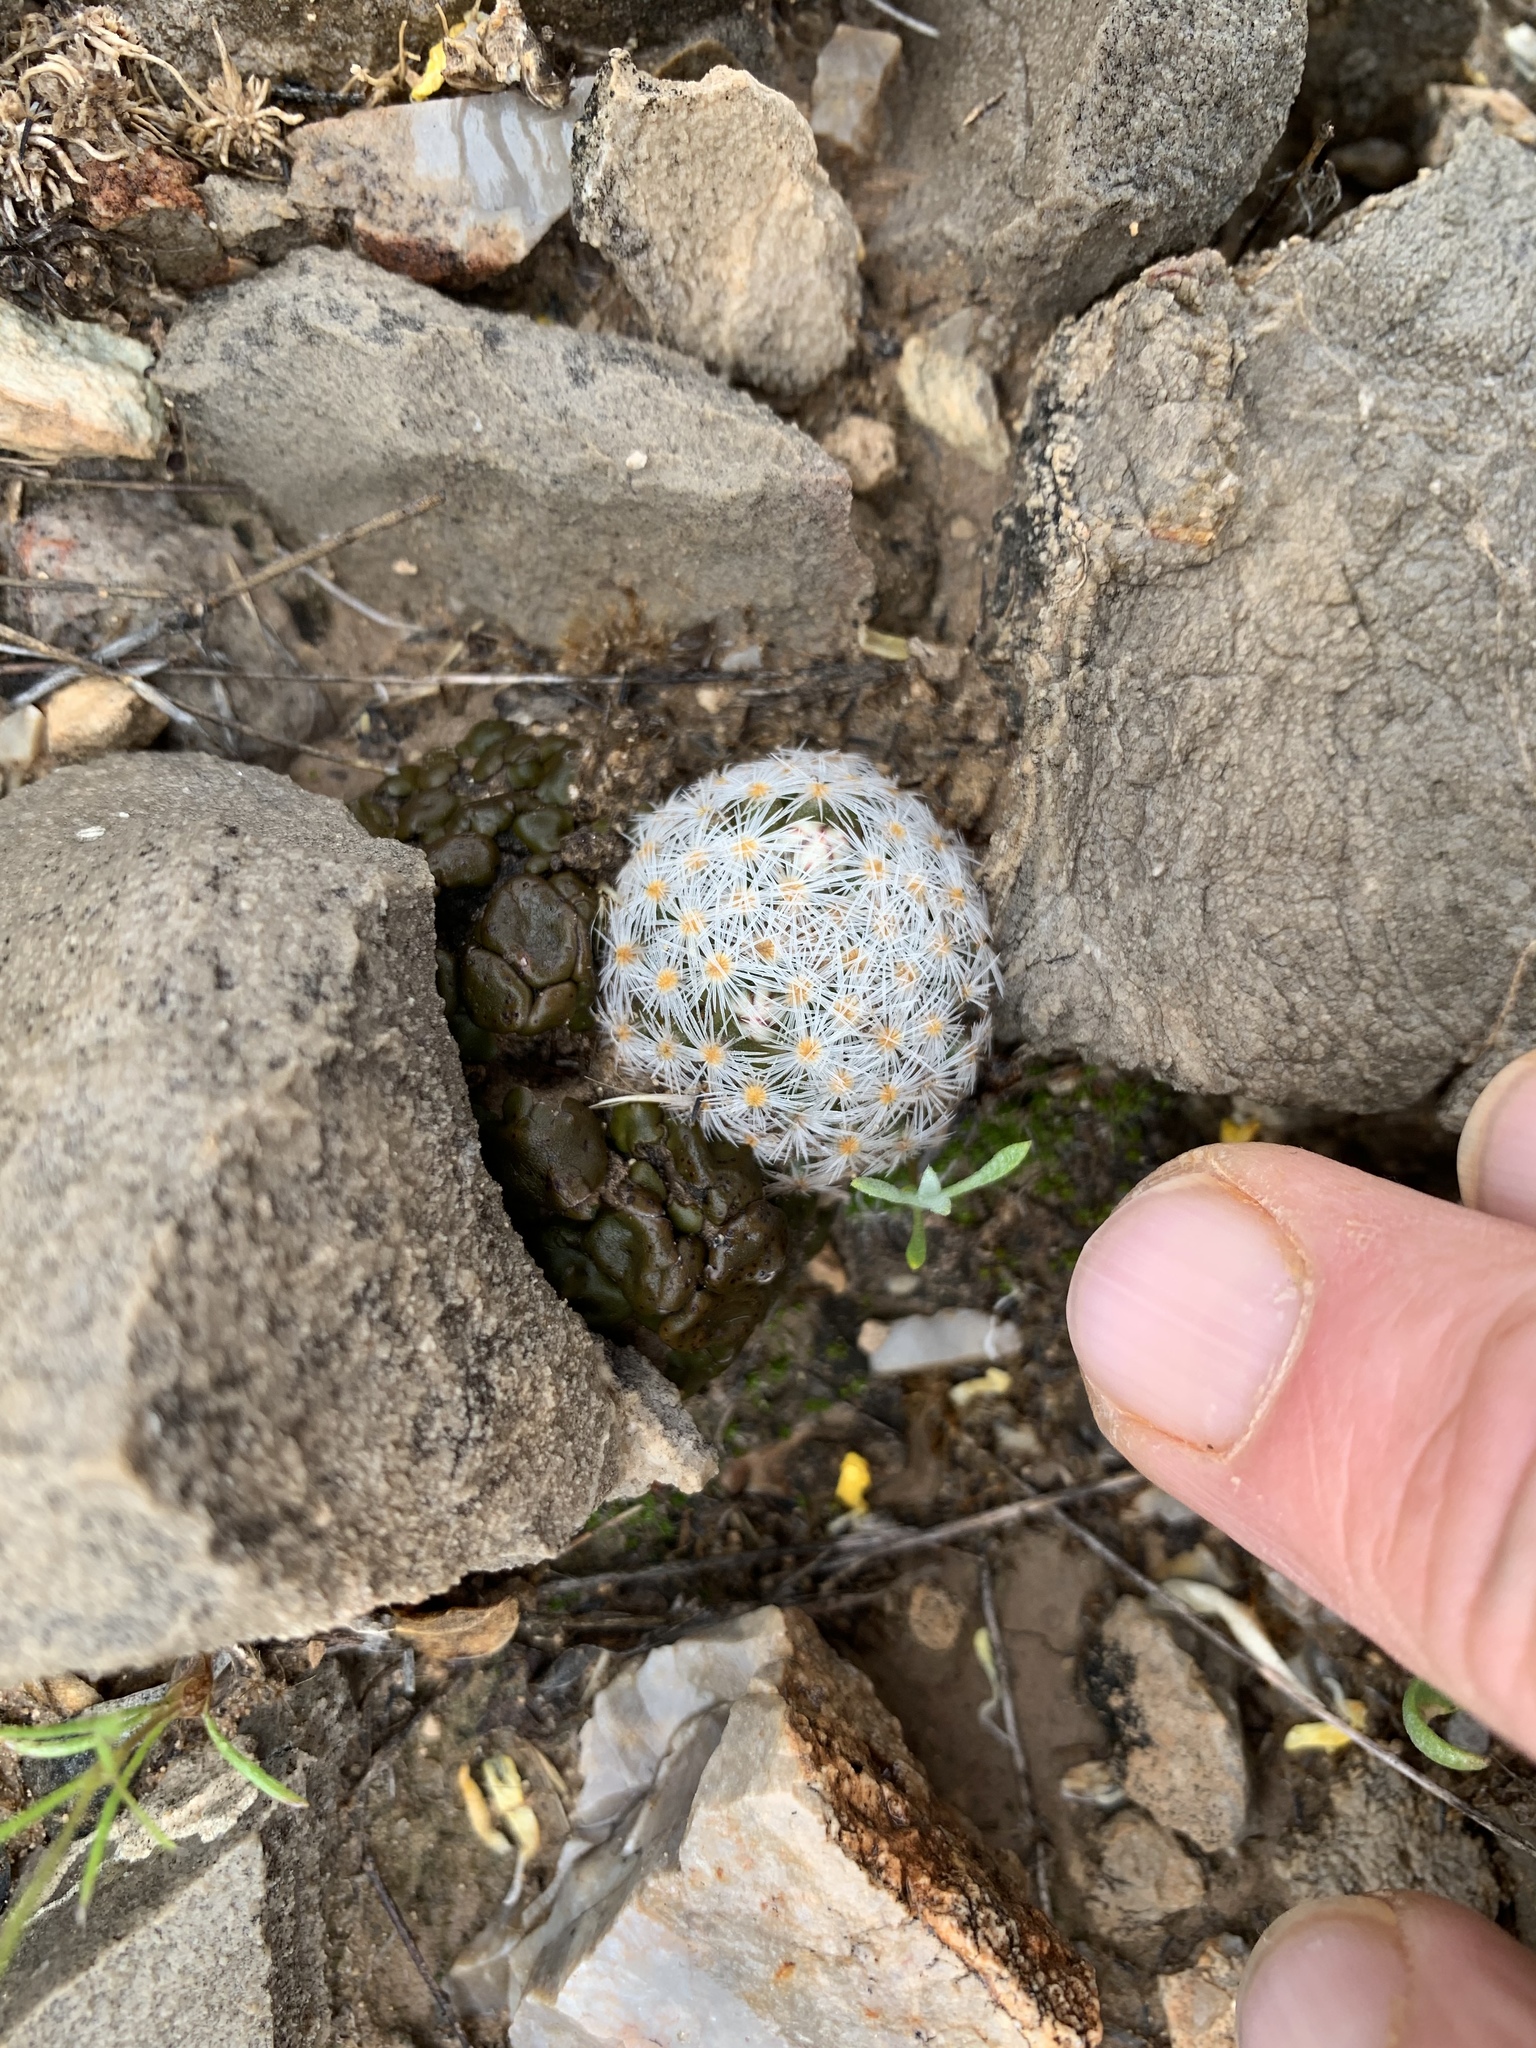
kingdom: Plantae
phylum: Tracheophyta
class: Magnoliopsida
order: Caryophyllales
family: Cactaceae
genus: Mammillaria
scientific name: Mammillaria lasiacantha
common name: Lace-spine nipple cactus
